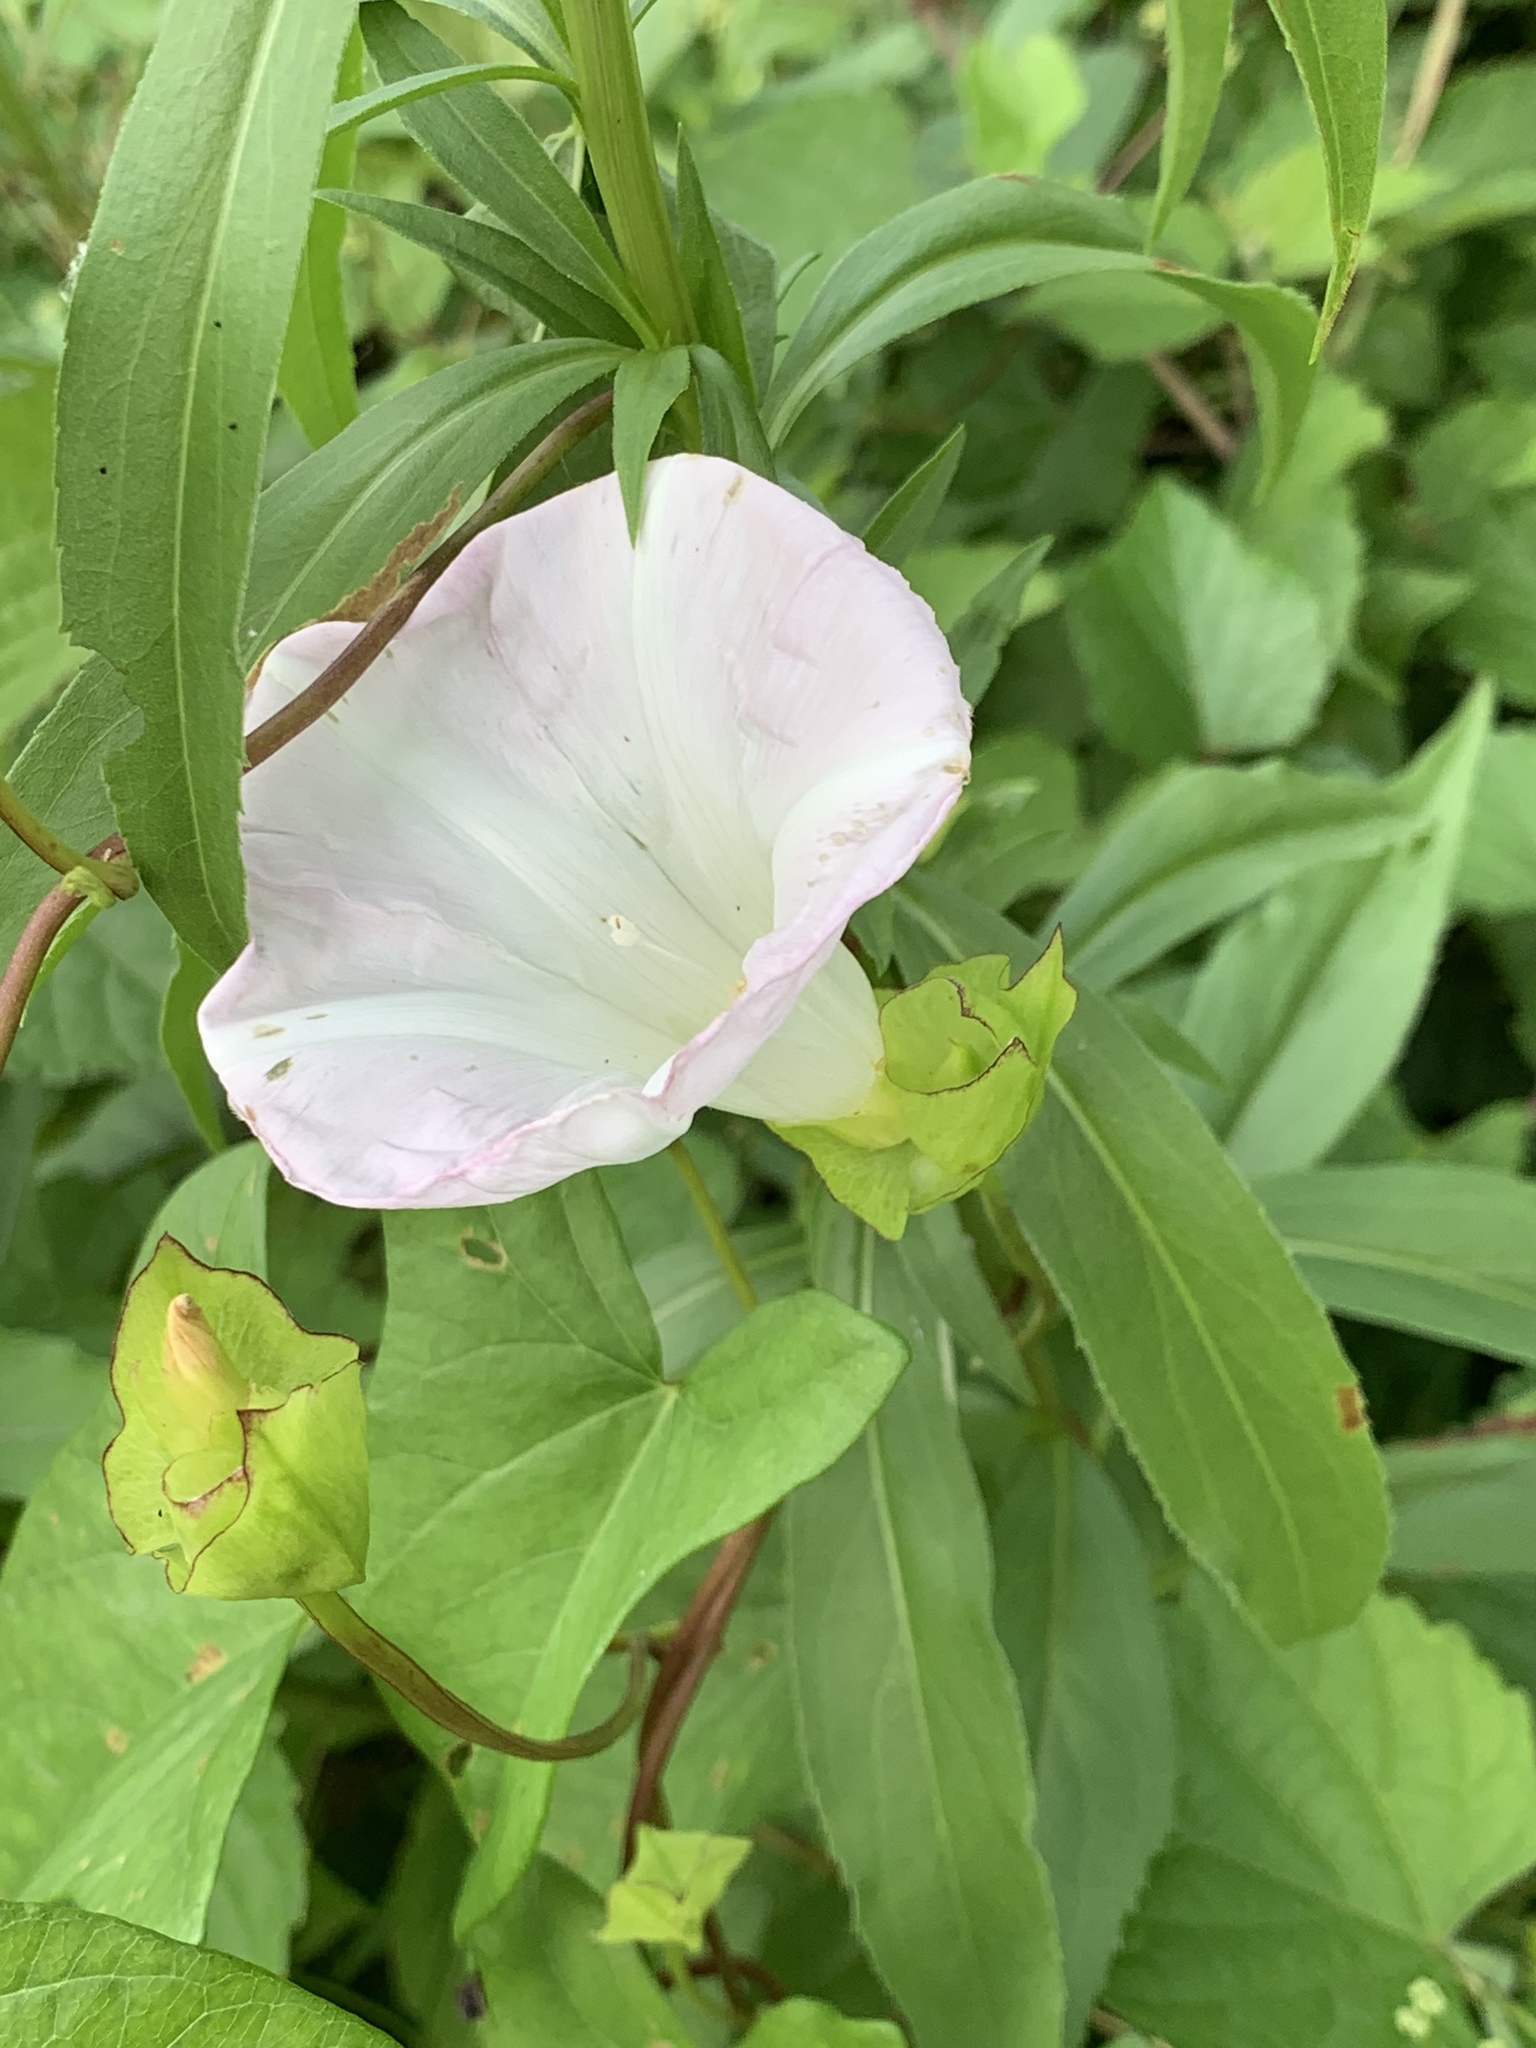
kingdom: Plantae
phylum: Tracheophyta
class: Magnoliopsida
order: Solanales
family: Convolvulaceae
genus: Calystegia
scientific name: Calystegia sepium
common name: Hedge bindweed
